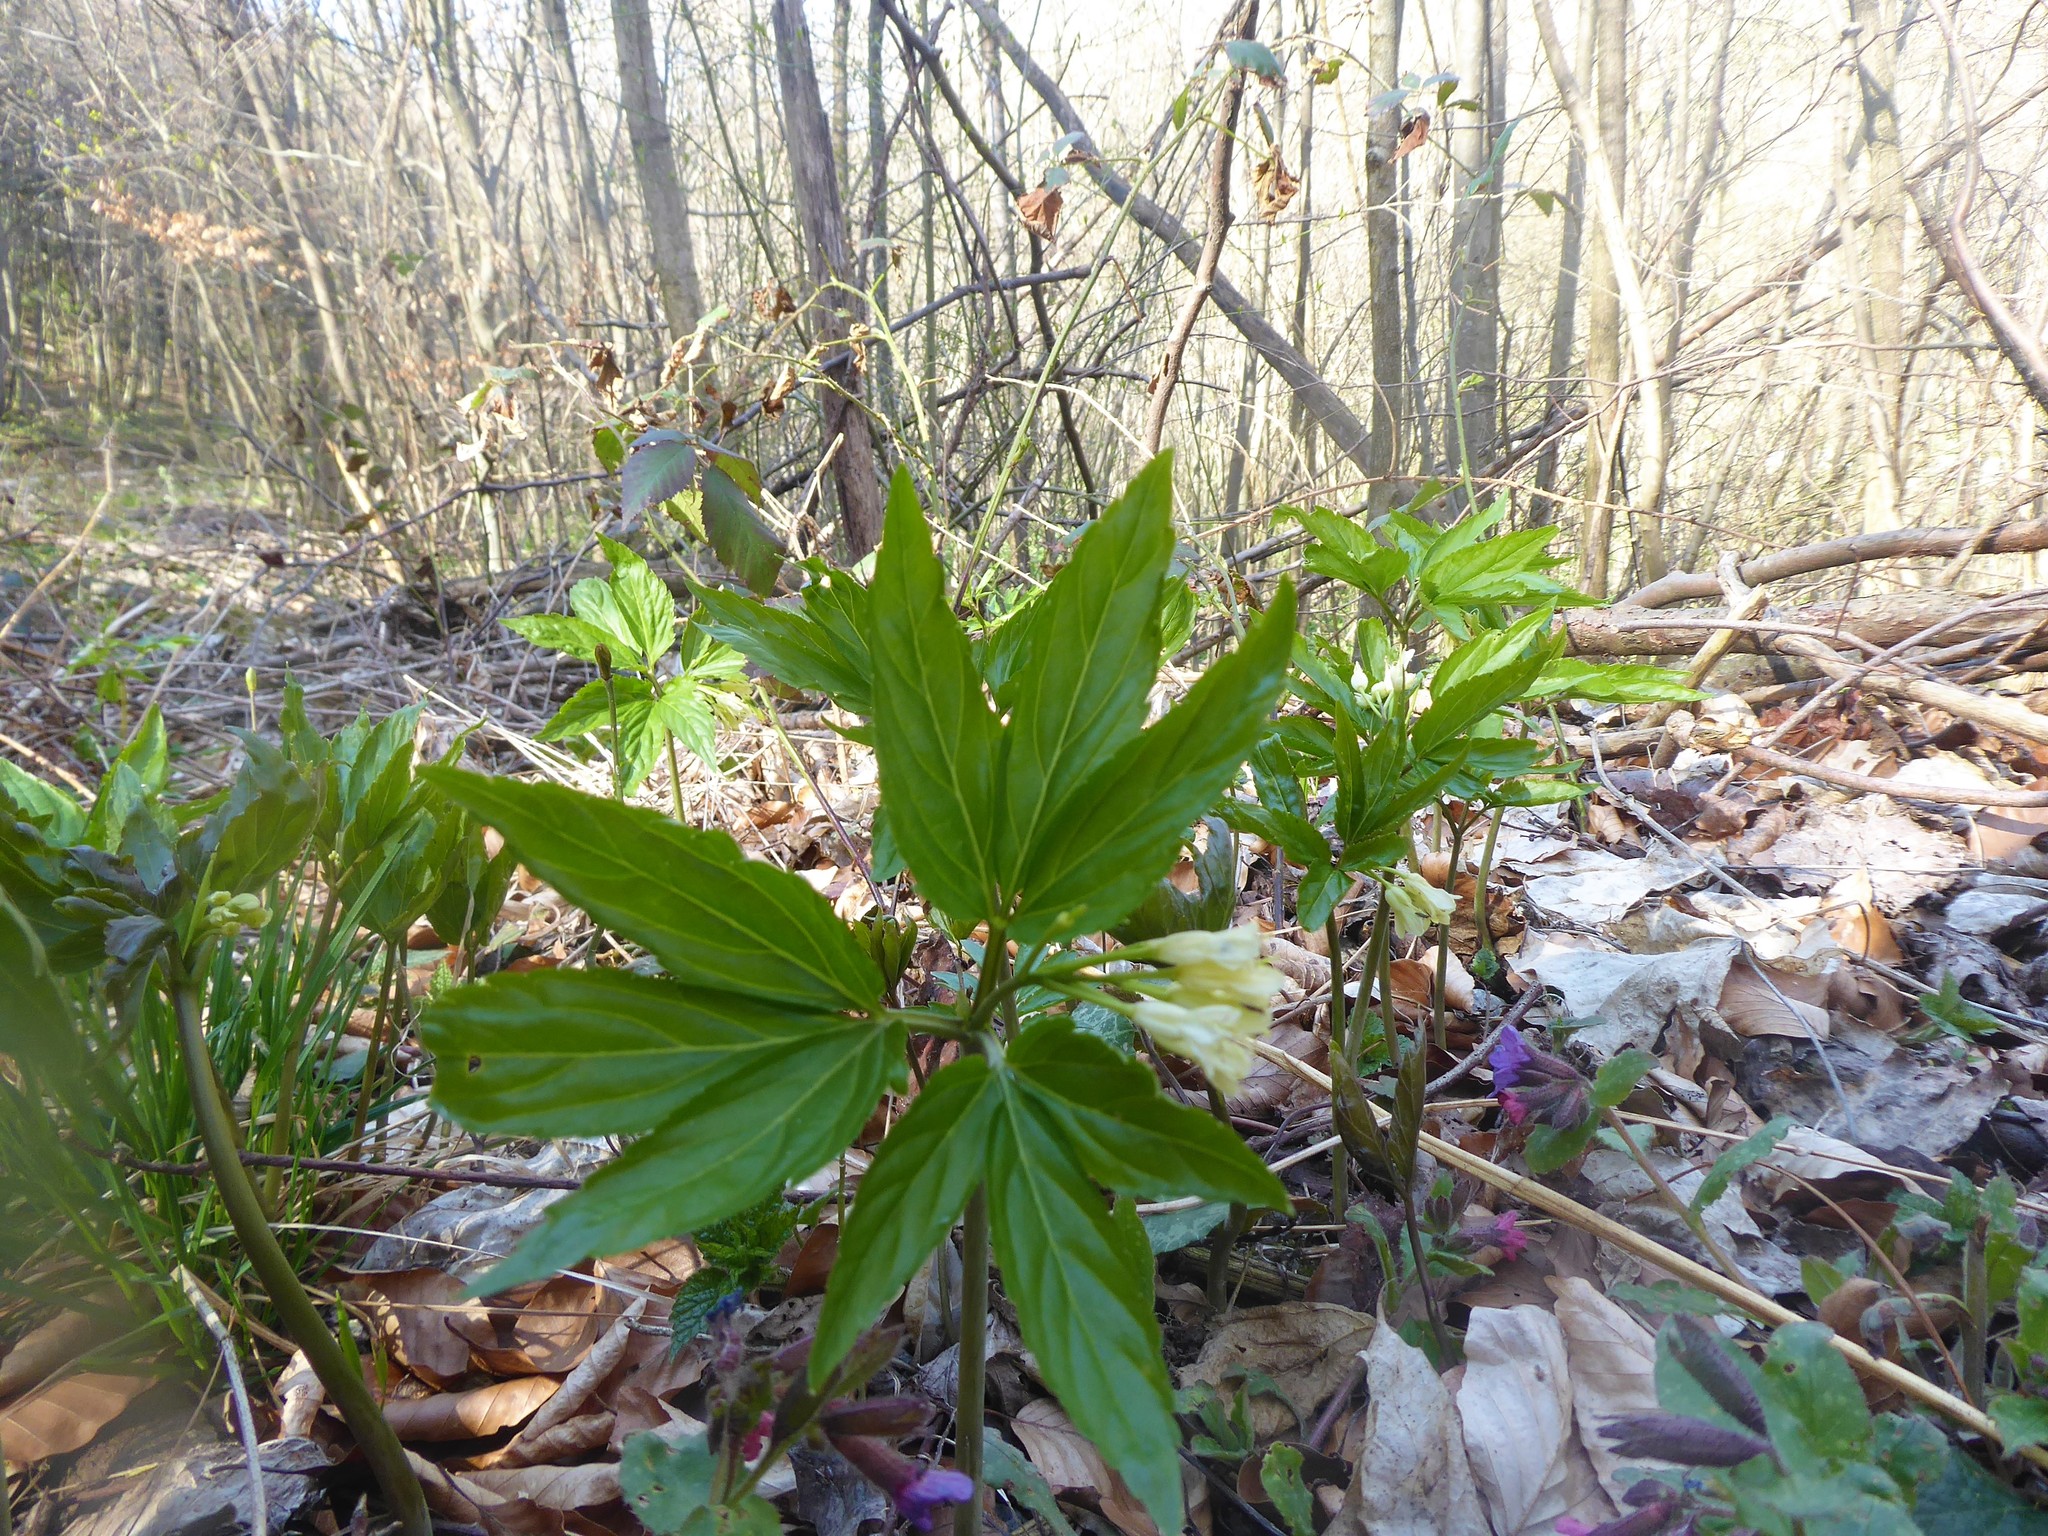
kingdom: Plantae
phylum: Tracheophyta
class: Magnoliopsida
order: Brassicales
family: Brassicaceae
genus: Cardamine
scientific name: Cardamine enneaphyllos
